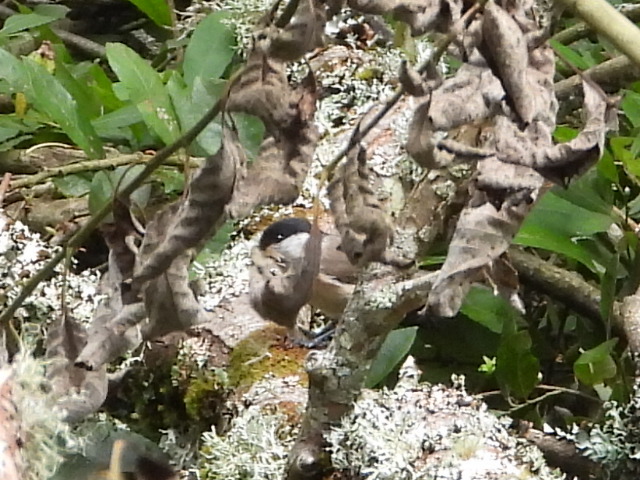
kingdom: Animalia
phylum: Chordata
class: Aves
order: Passeriformes
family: Paridae
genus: Poecile
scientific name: Poecile palustris
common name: Marsh tit
